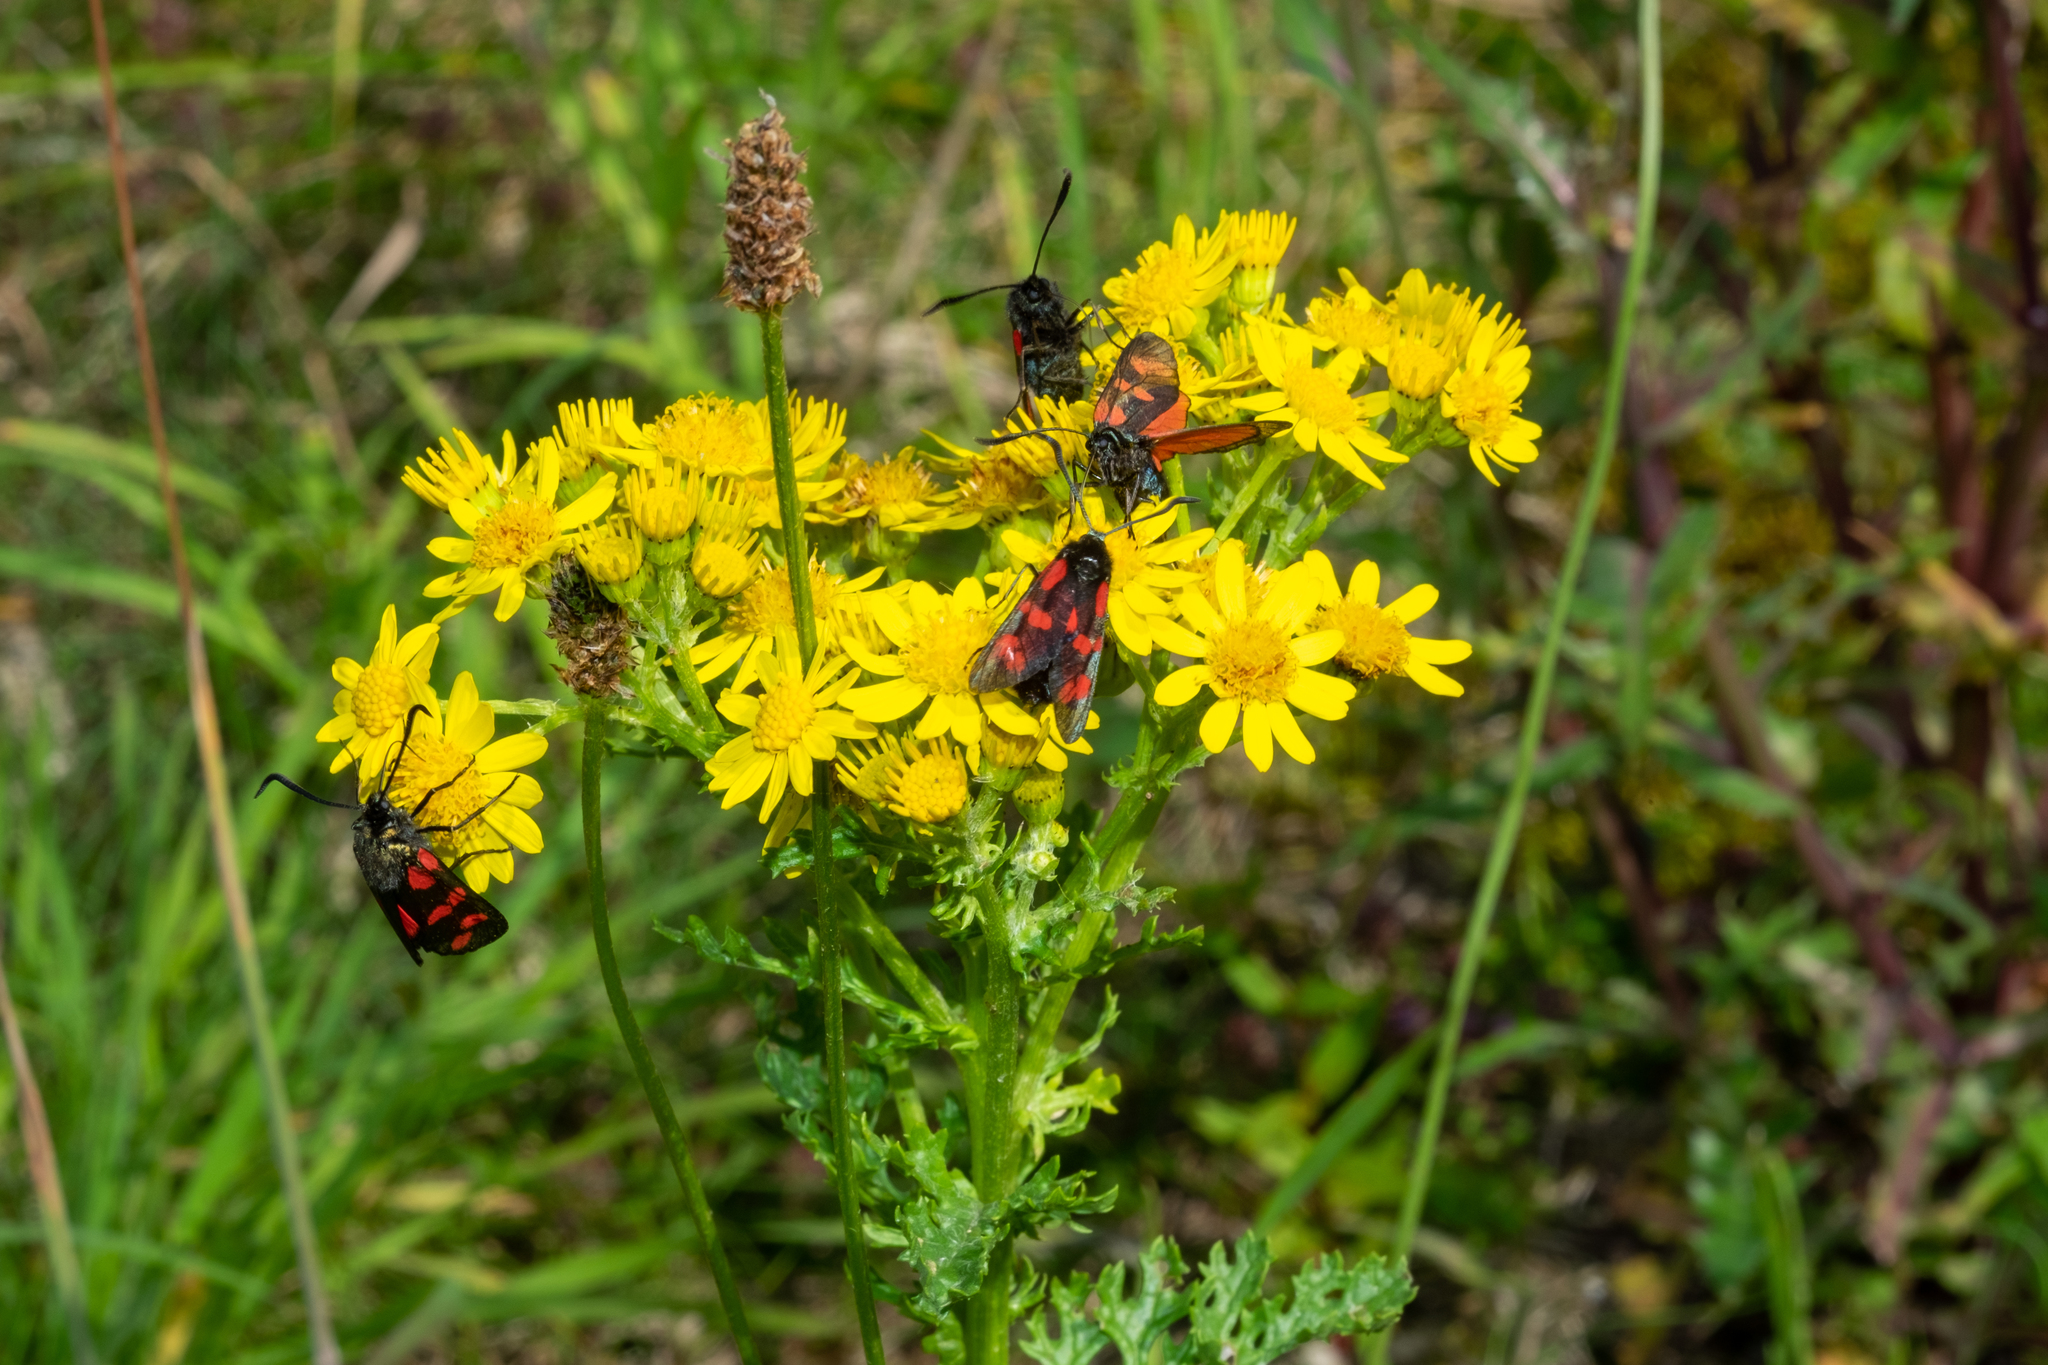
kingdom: Animalia
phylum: Arthropoda
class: Insecta
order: Lepidoptera
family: Zygaenidae
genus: Zygaena
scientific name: Zygaena filipendulae
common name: Six-spot burnet
